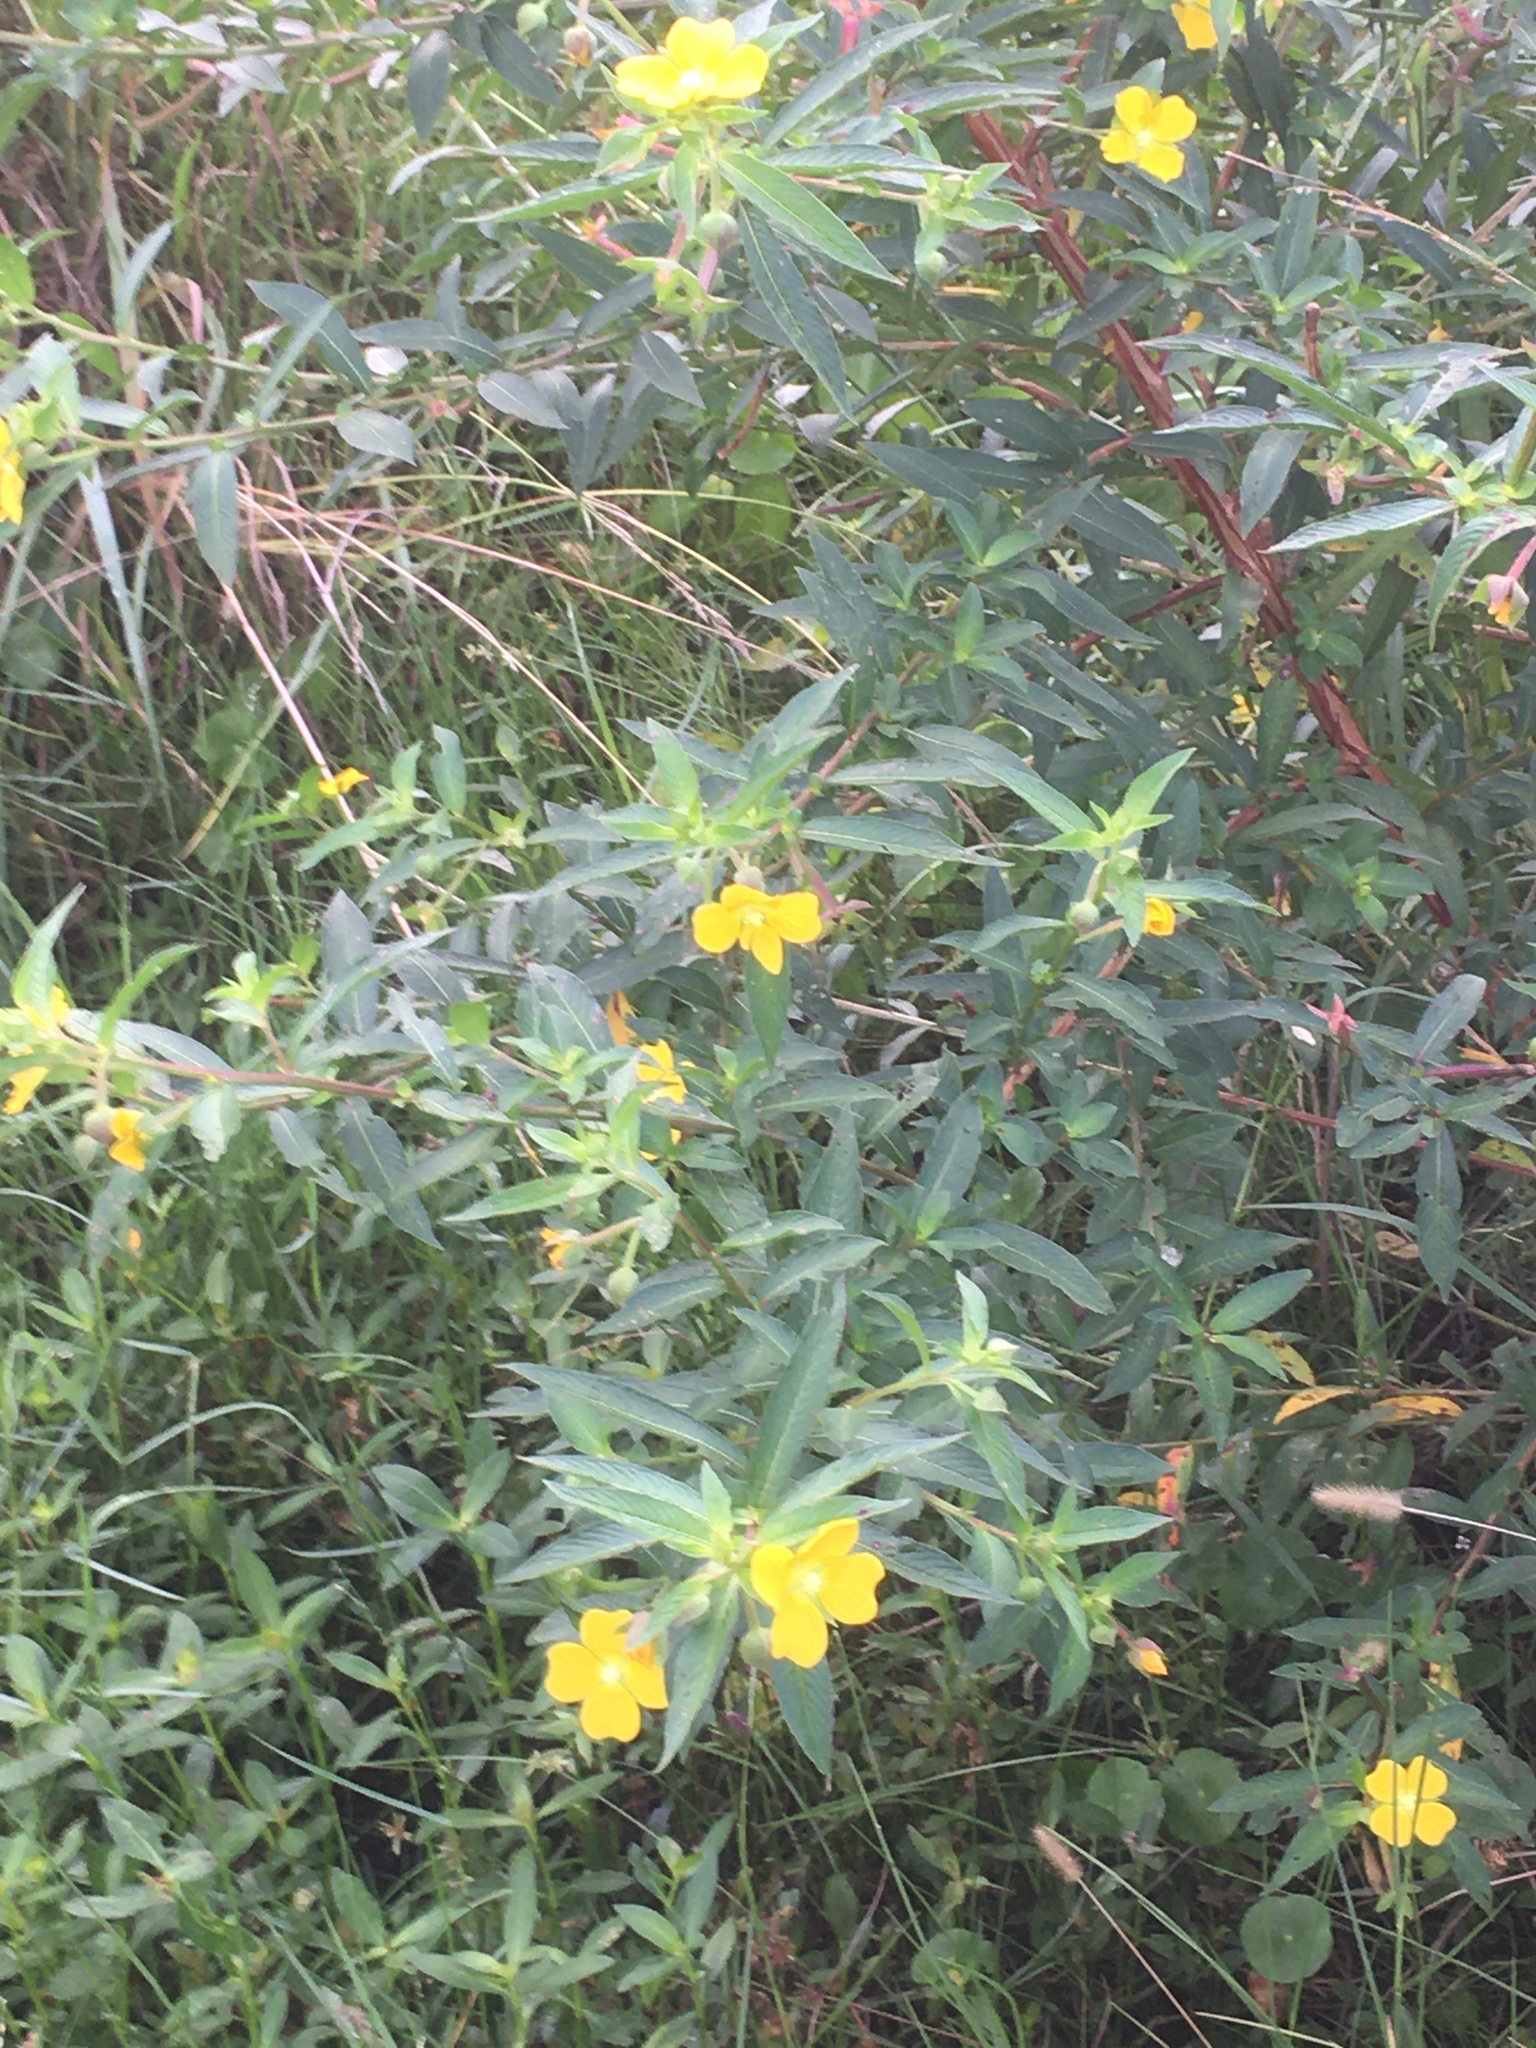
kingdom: Plantae
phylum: Tracheophyta
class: Magnoliopsida
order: Myrtales
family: Onagraceae
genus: Ludwigia
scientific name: Ludwigia octovalvis
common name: Water-primrose
